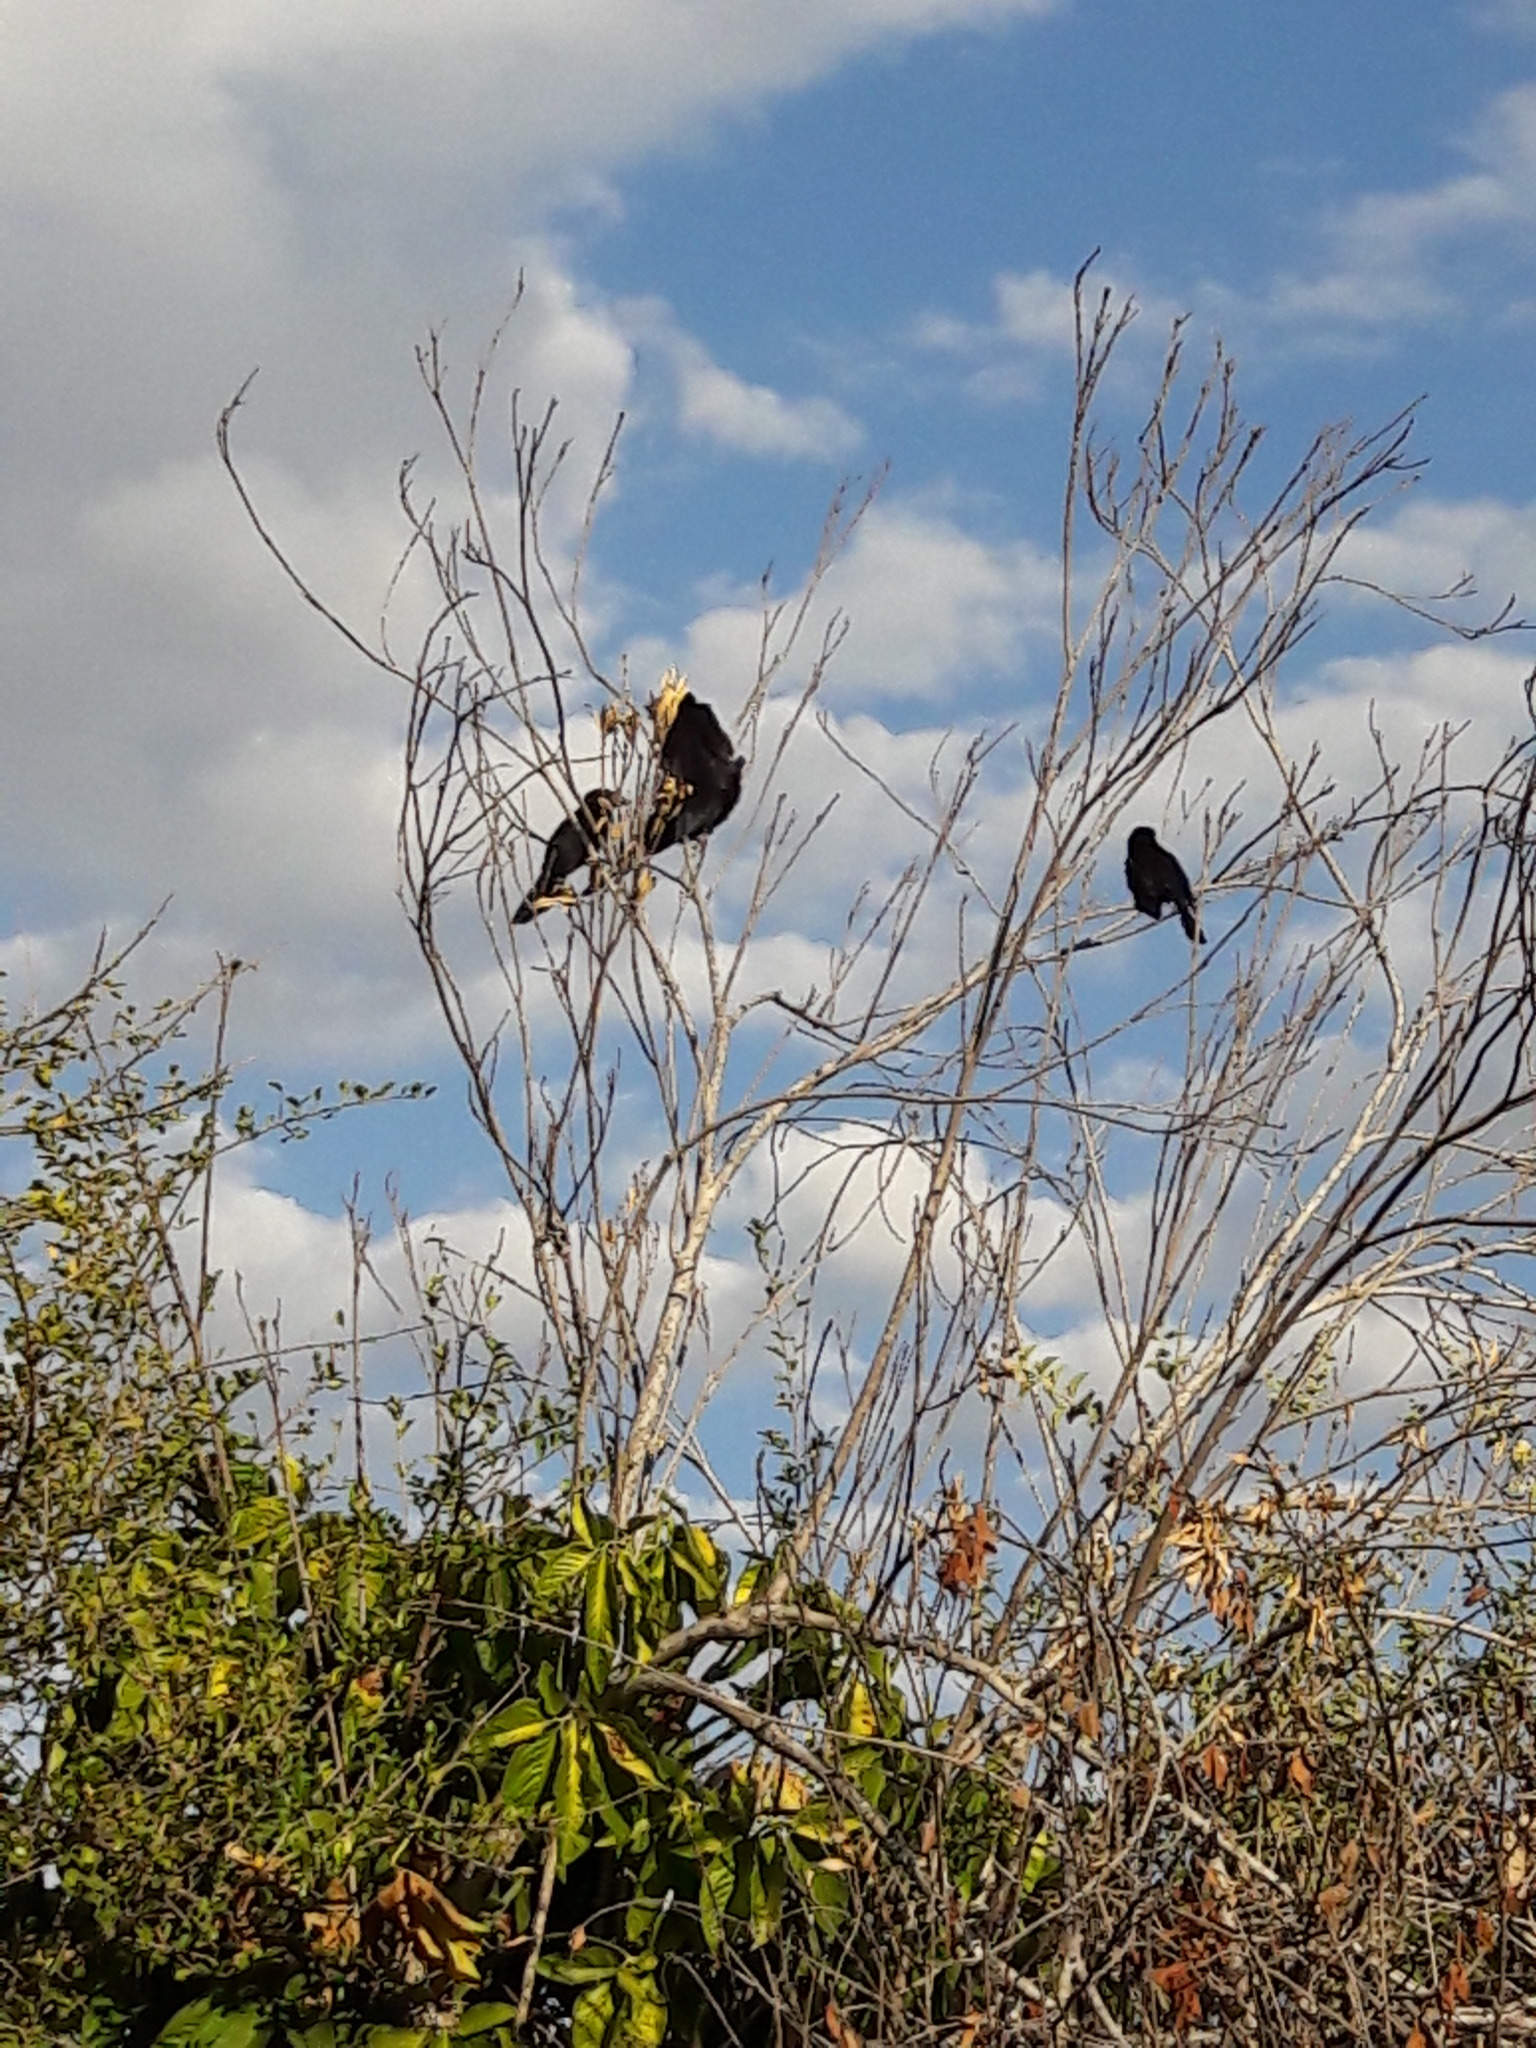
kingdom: Animalia
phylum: Chordata
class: Aves
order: Cuculiformes
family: Cuculidae
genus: Crotophaga
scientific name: Crotophaga ani
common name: Smooth-billed ani
